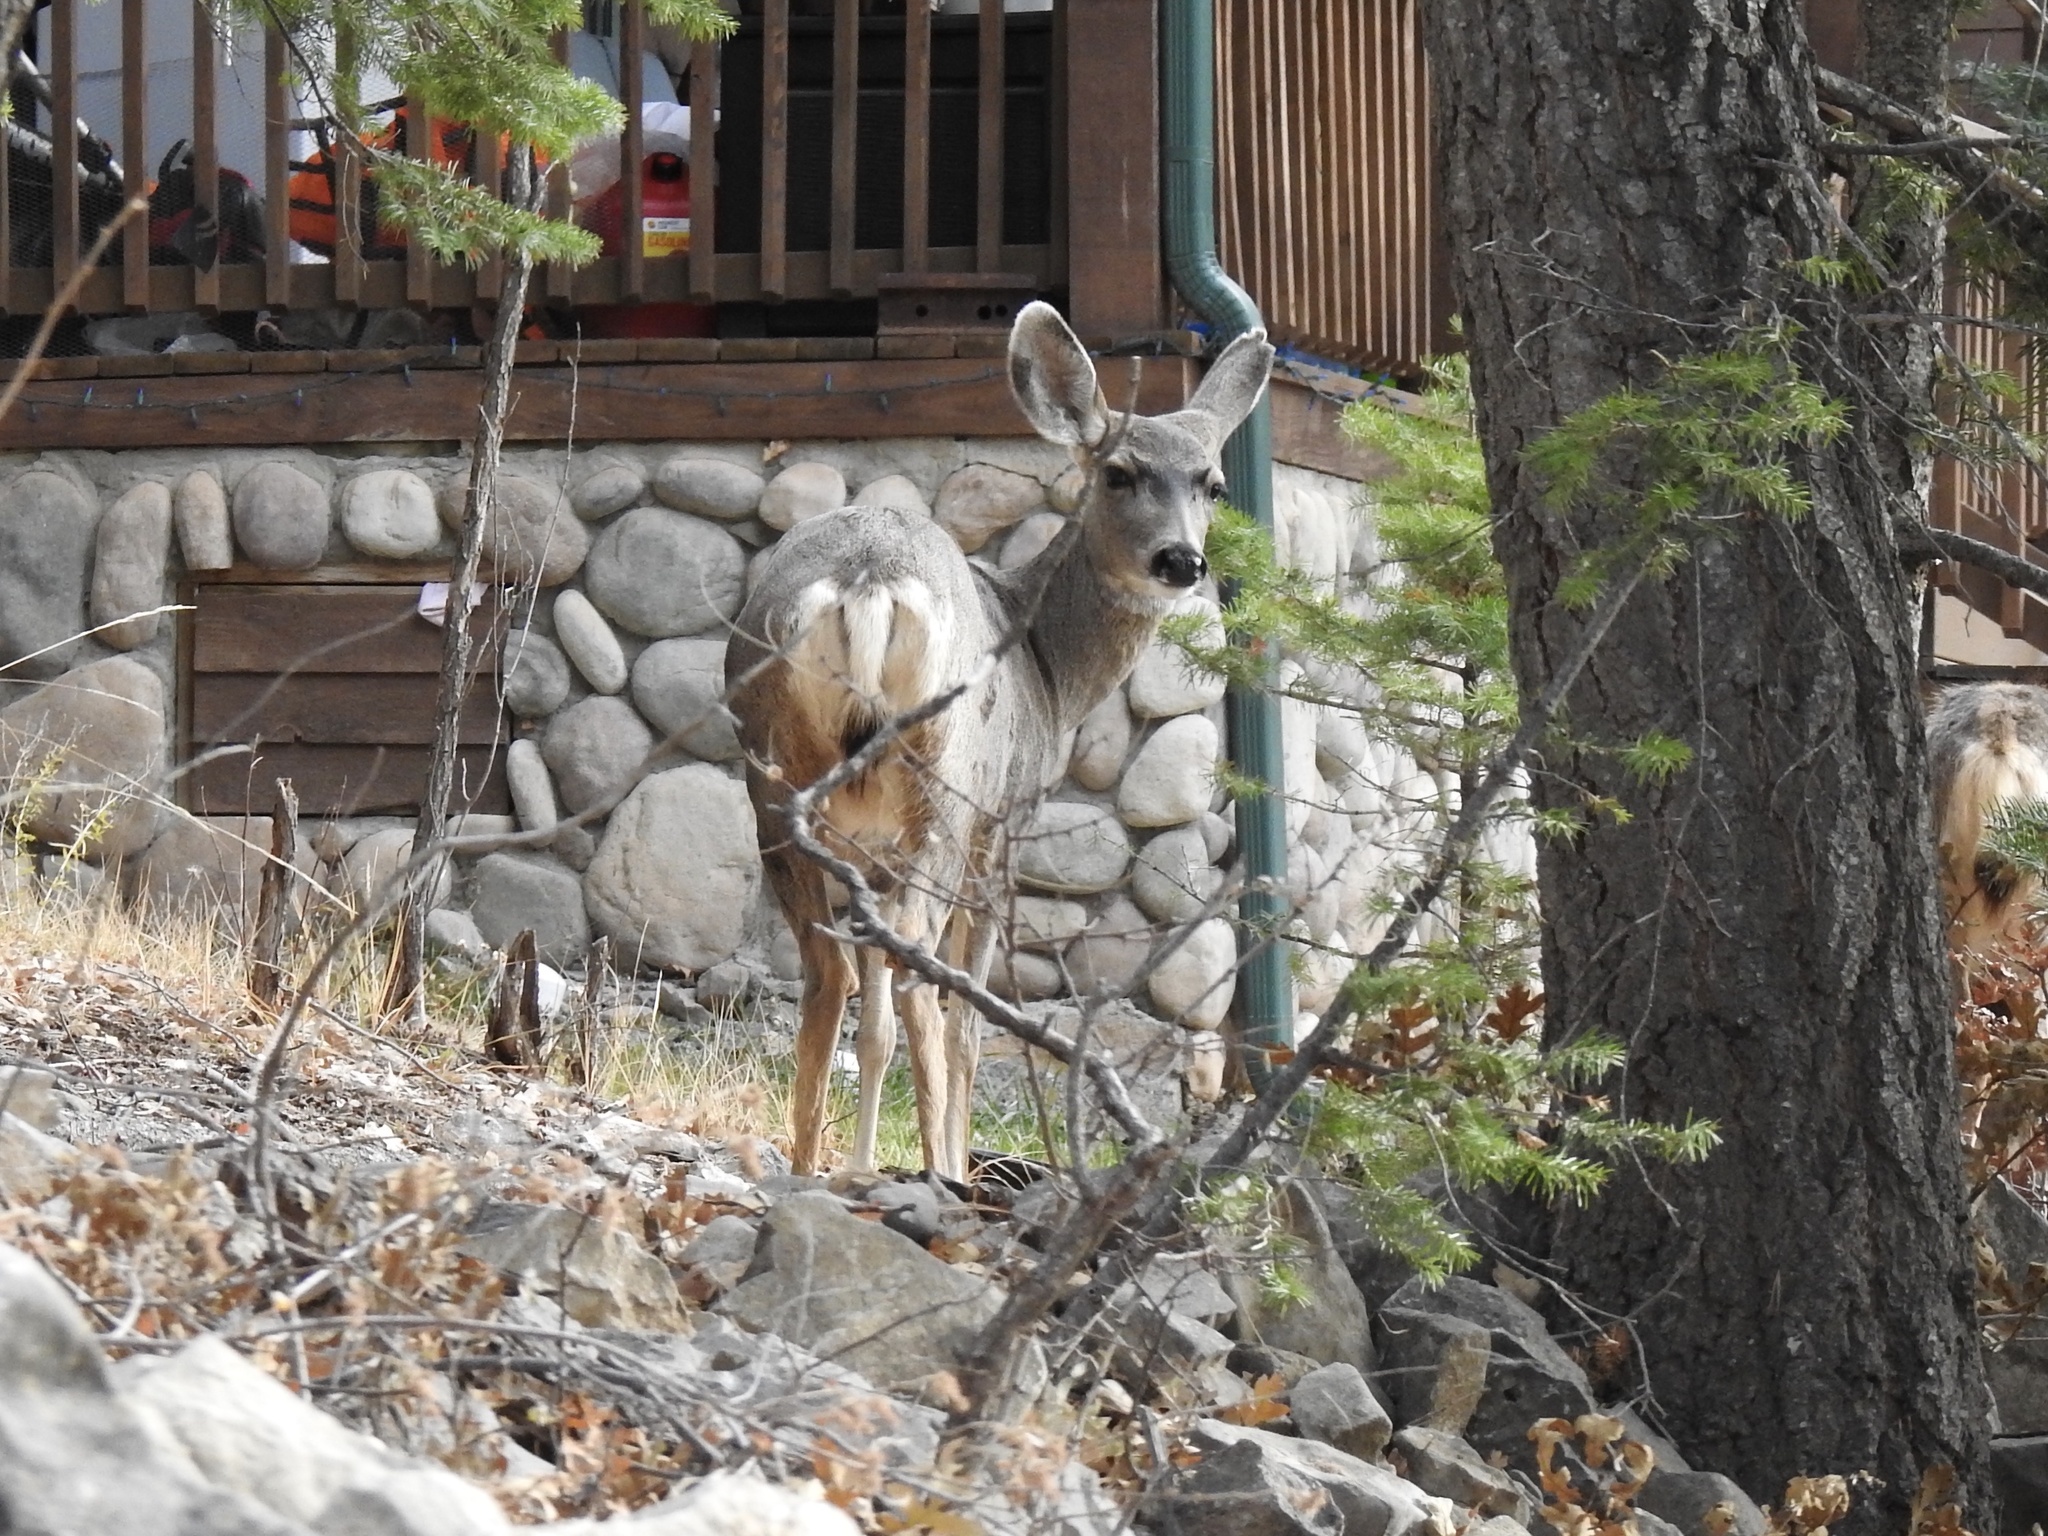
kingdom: Animalia
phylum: Chordata
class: Mammalia
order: Artiodactyla
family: Cervidae
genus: Odocoileus
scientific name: Odocoileus hemionus
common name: Mule deer
